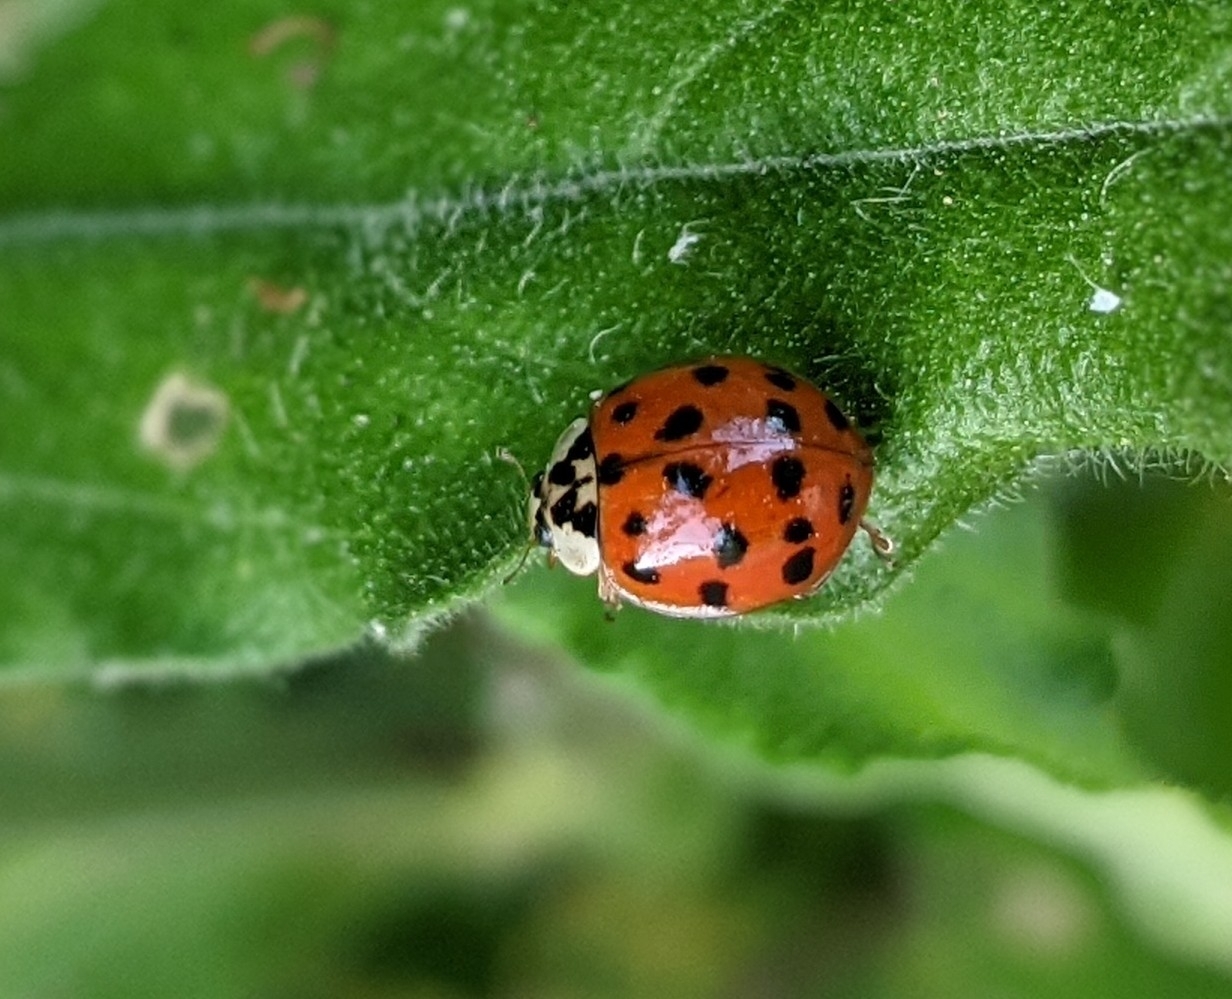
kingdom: Animalia
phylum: Arthropoda
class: Insecta
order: Coleoptera
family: Coccinellidae
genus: Harmonia
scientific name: Harmonia axyridis
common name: Harlequin ladybird
